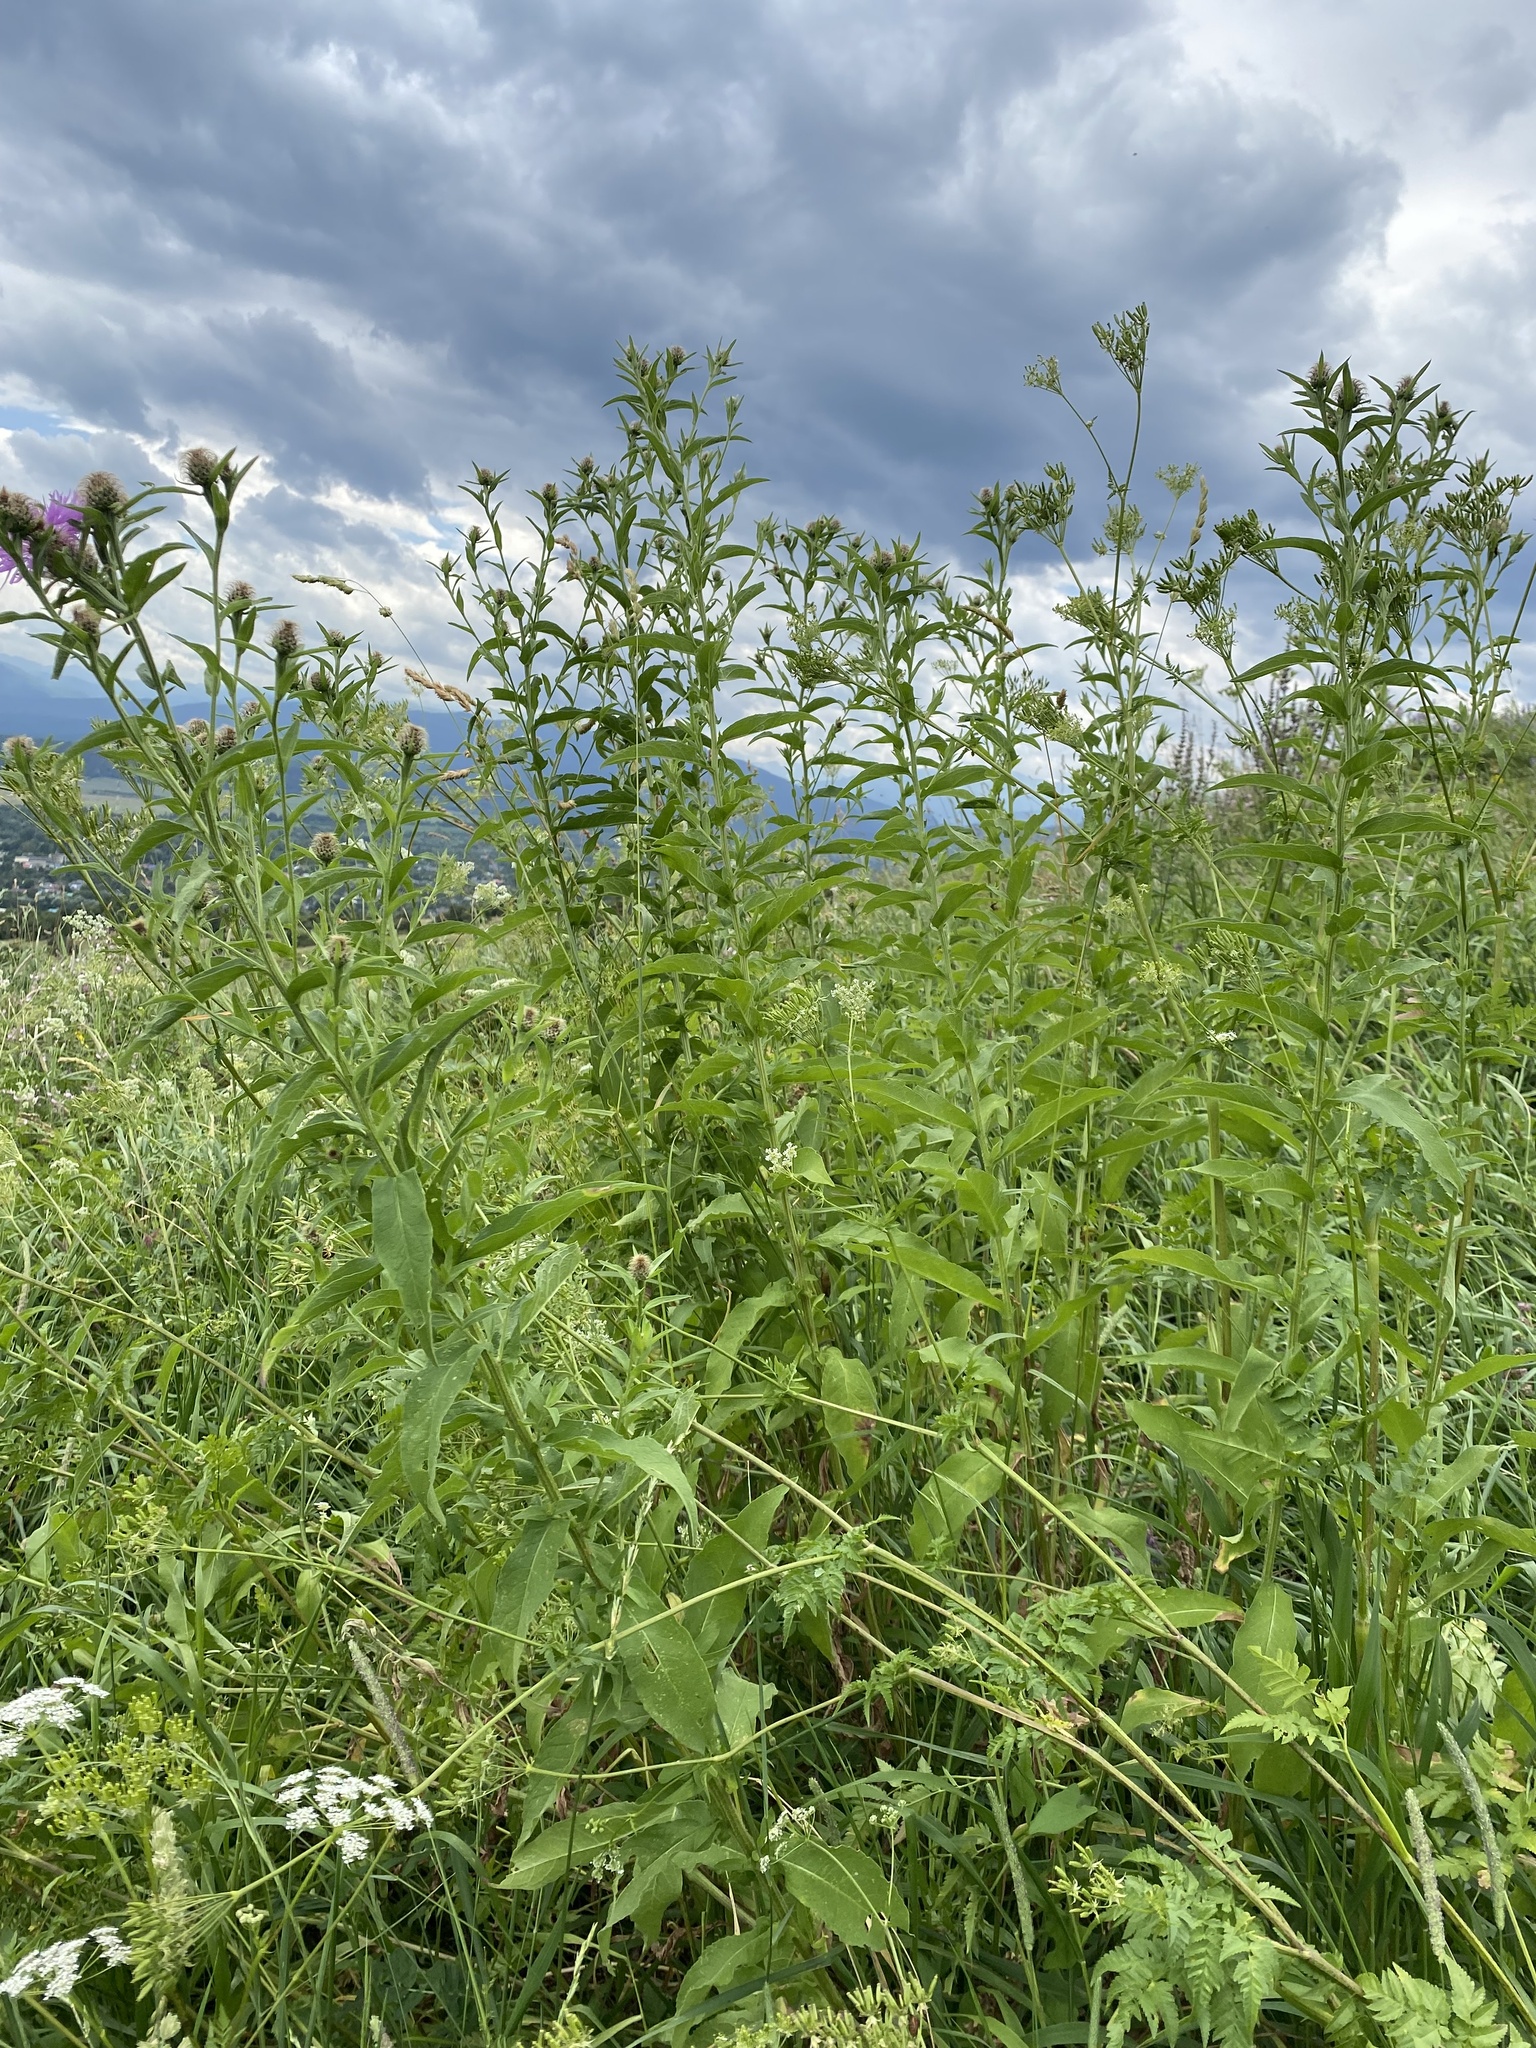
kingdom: Plantae
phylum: Tracheophyta
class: Magnoliopsida
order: Asterales
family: Asteraceae
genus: Centaurea
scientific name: Centaurea phrygia
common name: Wig knapweed
